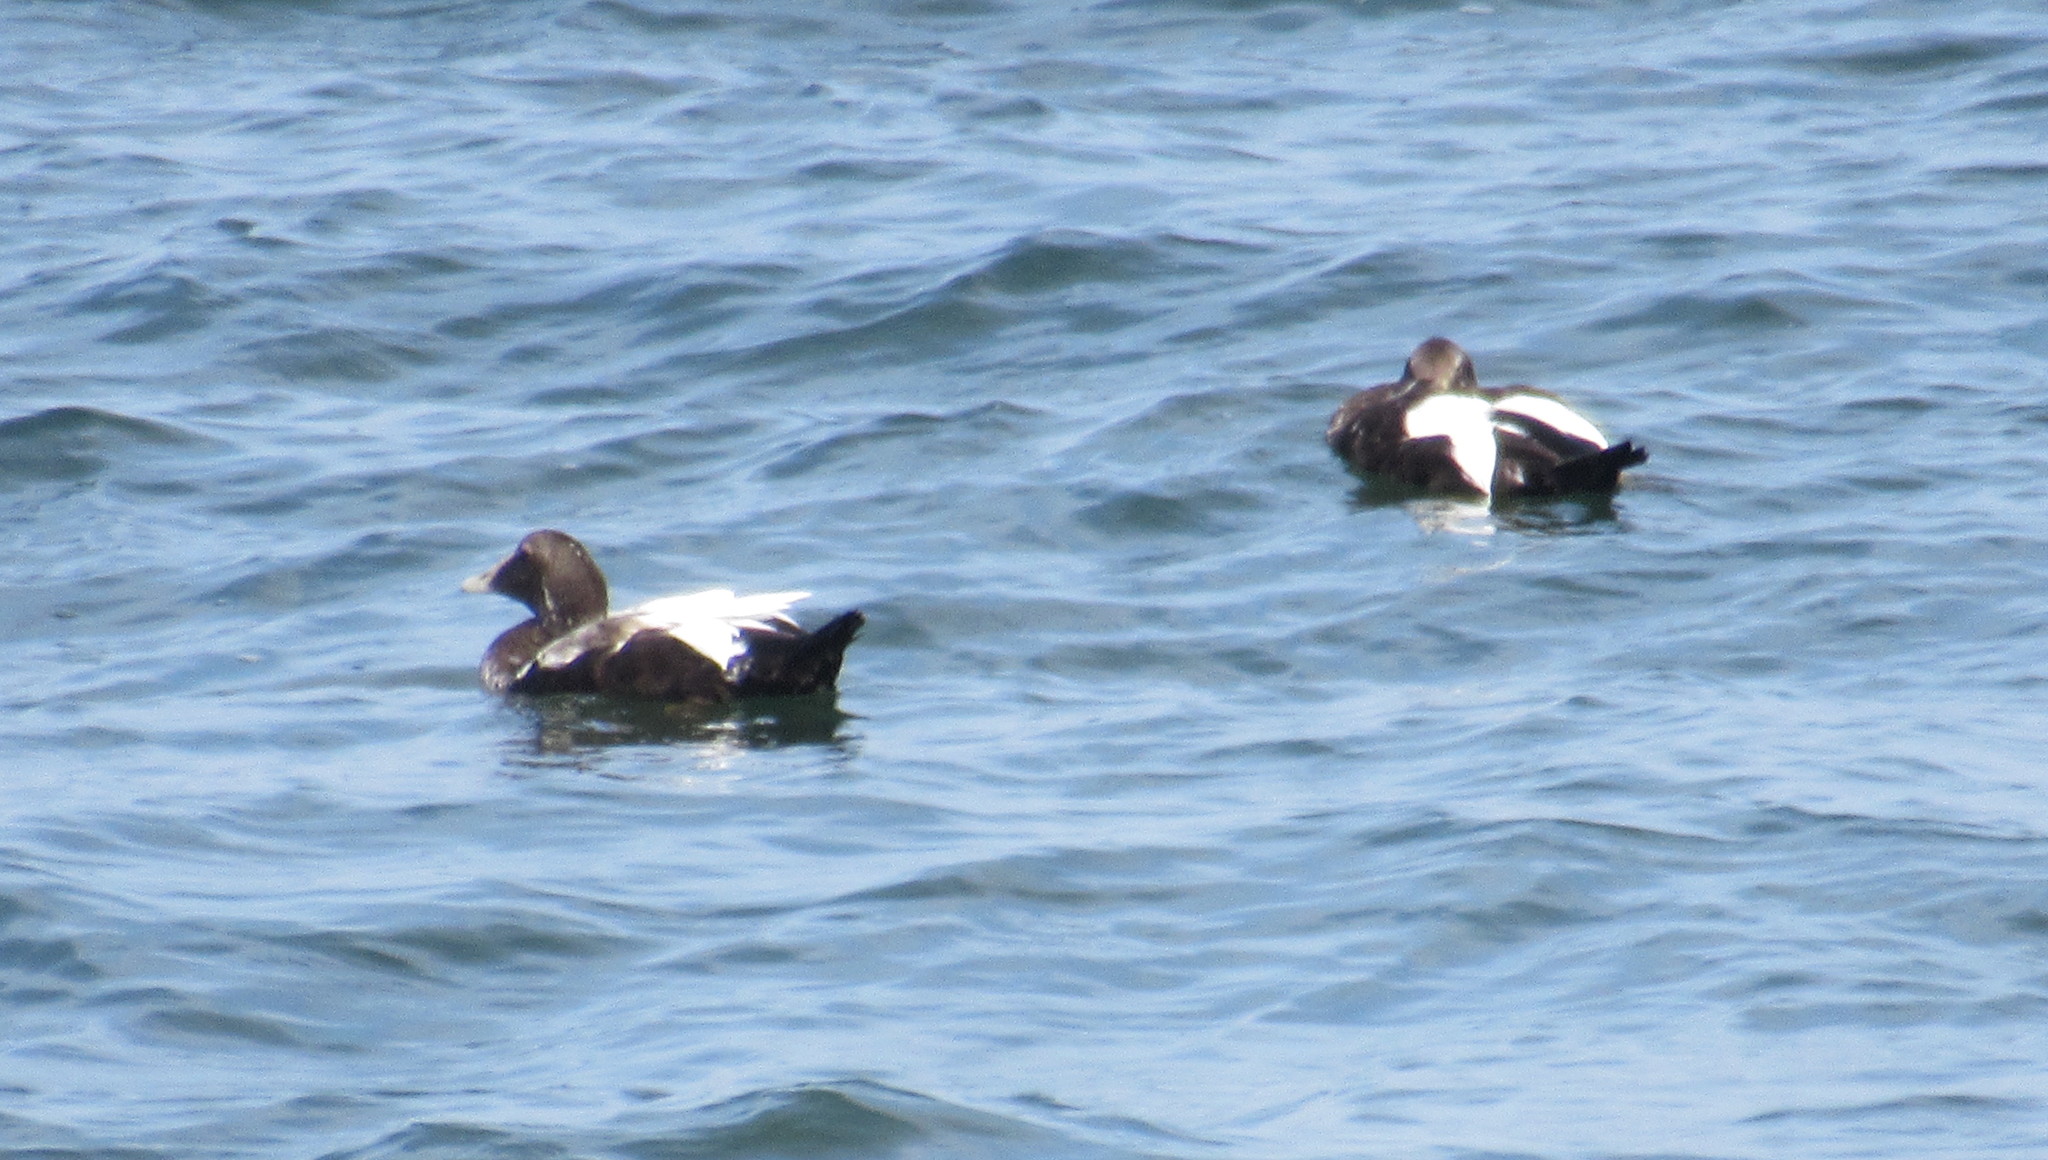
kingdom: Animalia
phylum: Chordata
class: Aves
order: Anseriformes
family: Anatidae
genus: Somateria
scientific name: Somateria mollissima
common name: Common eider
